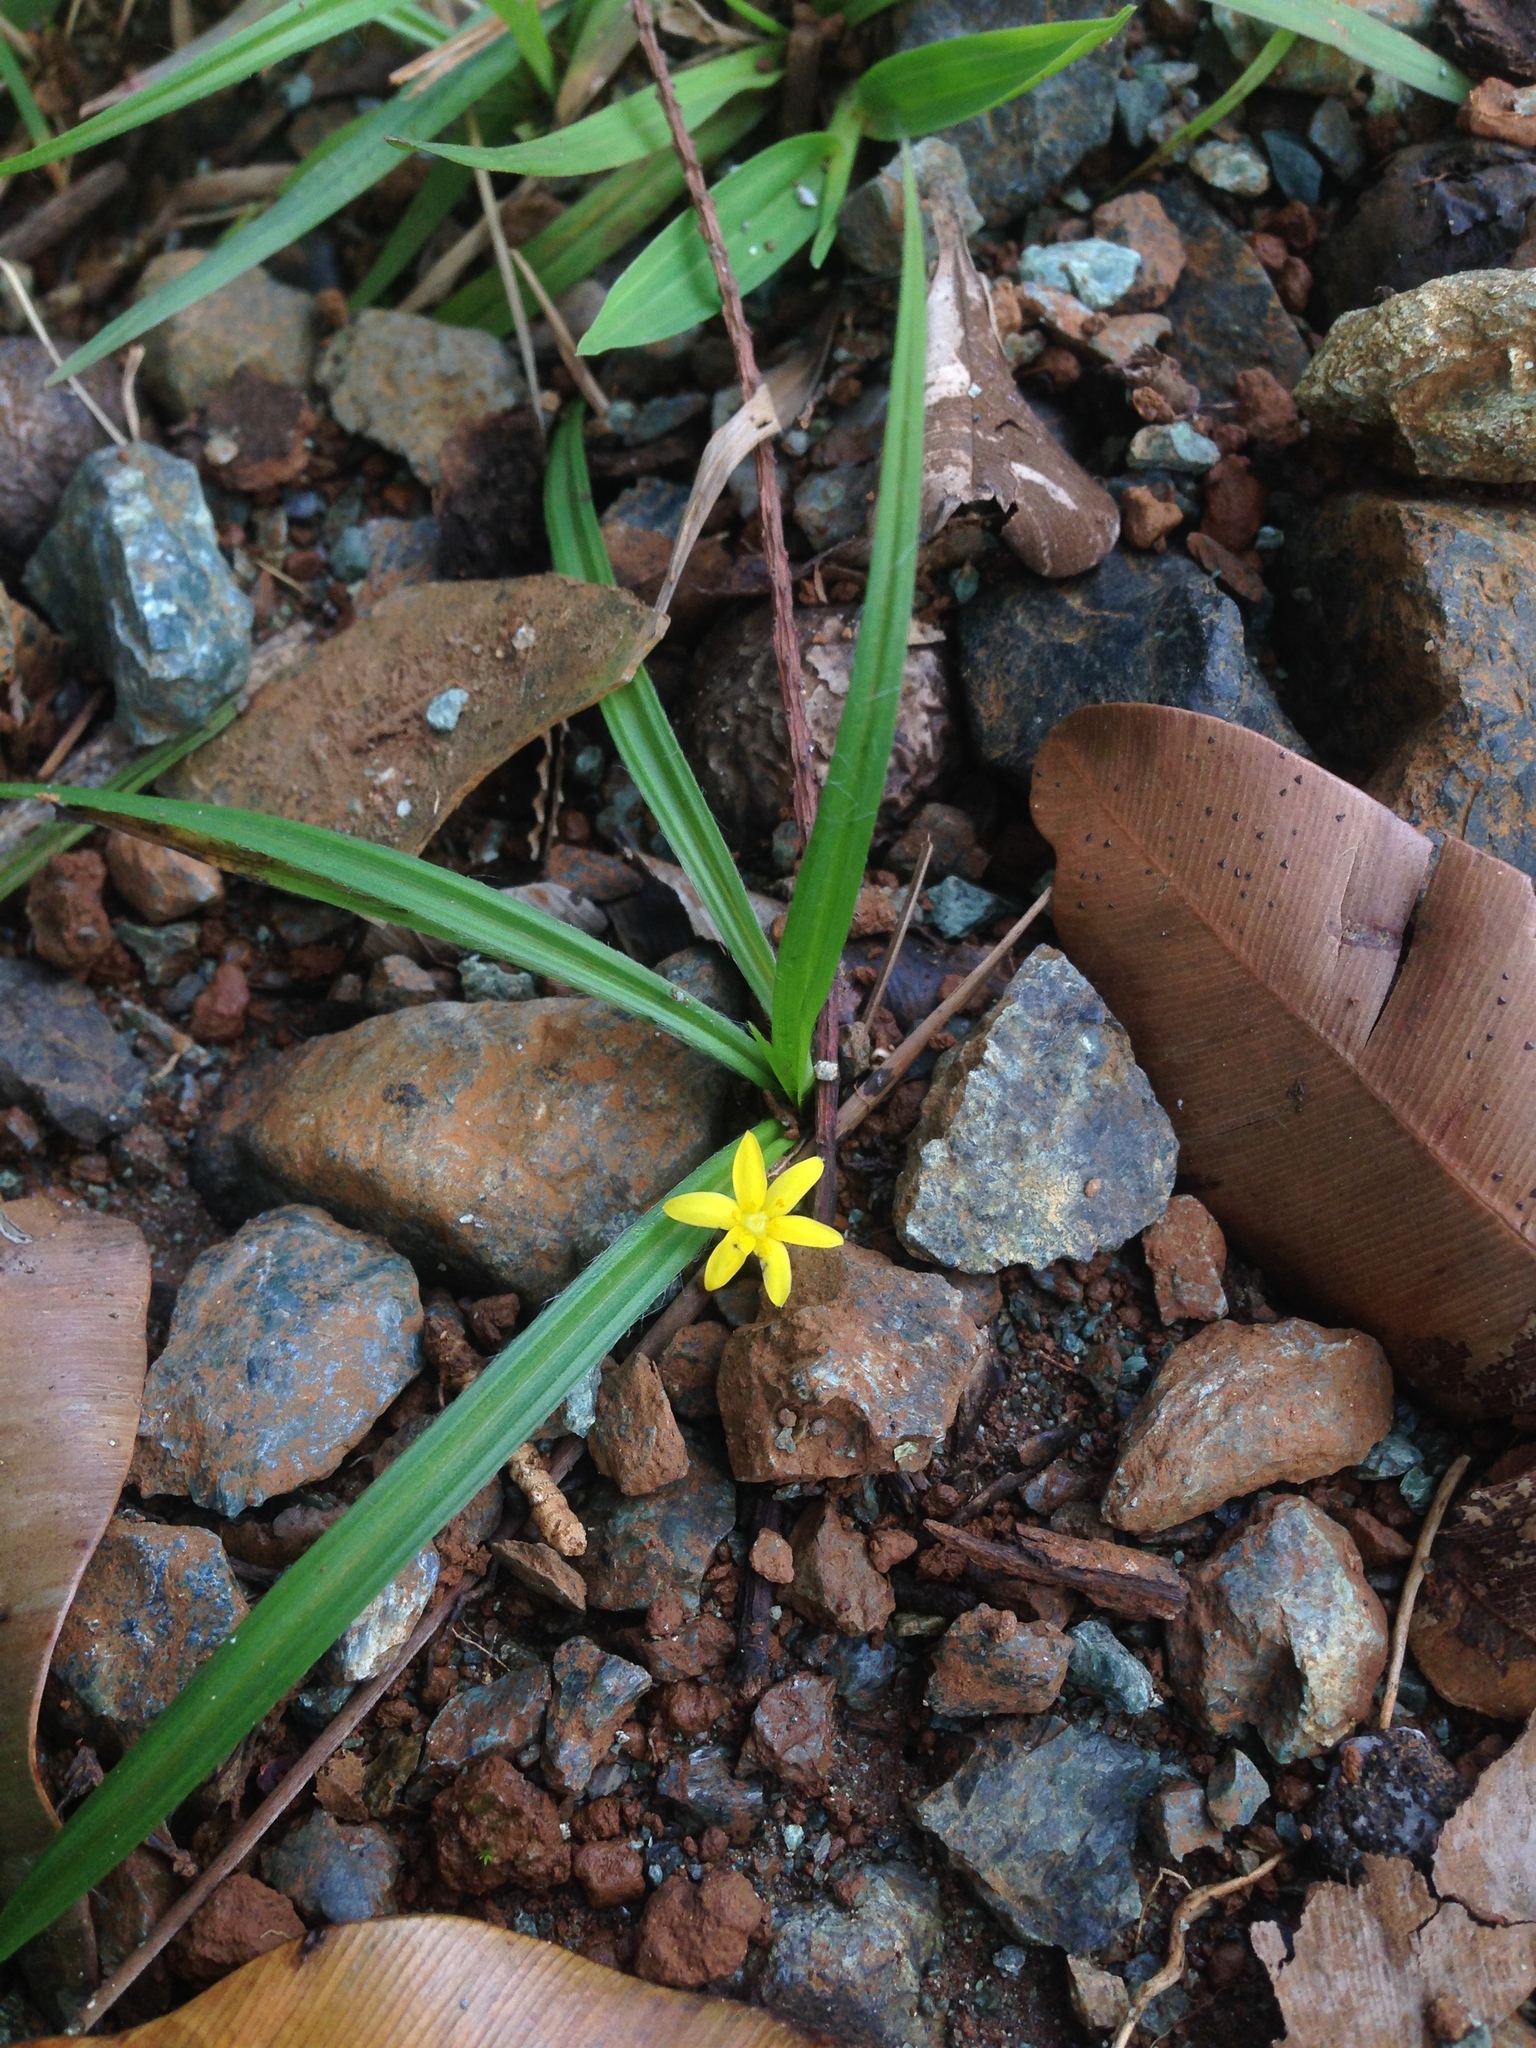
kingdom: Plantae
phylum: Tracheophyta
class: Liliopsida
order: Asparagales
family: Hypoxidaceae
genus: Hypoxis
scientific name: Hypoxis decumbens
